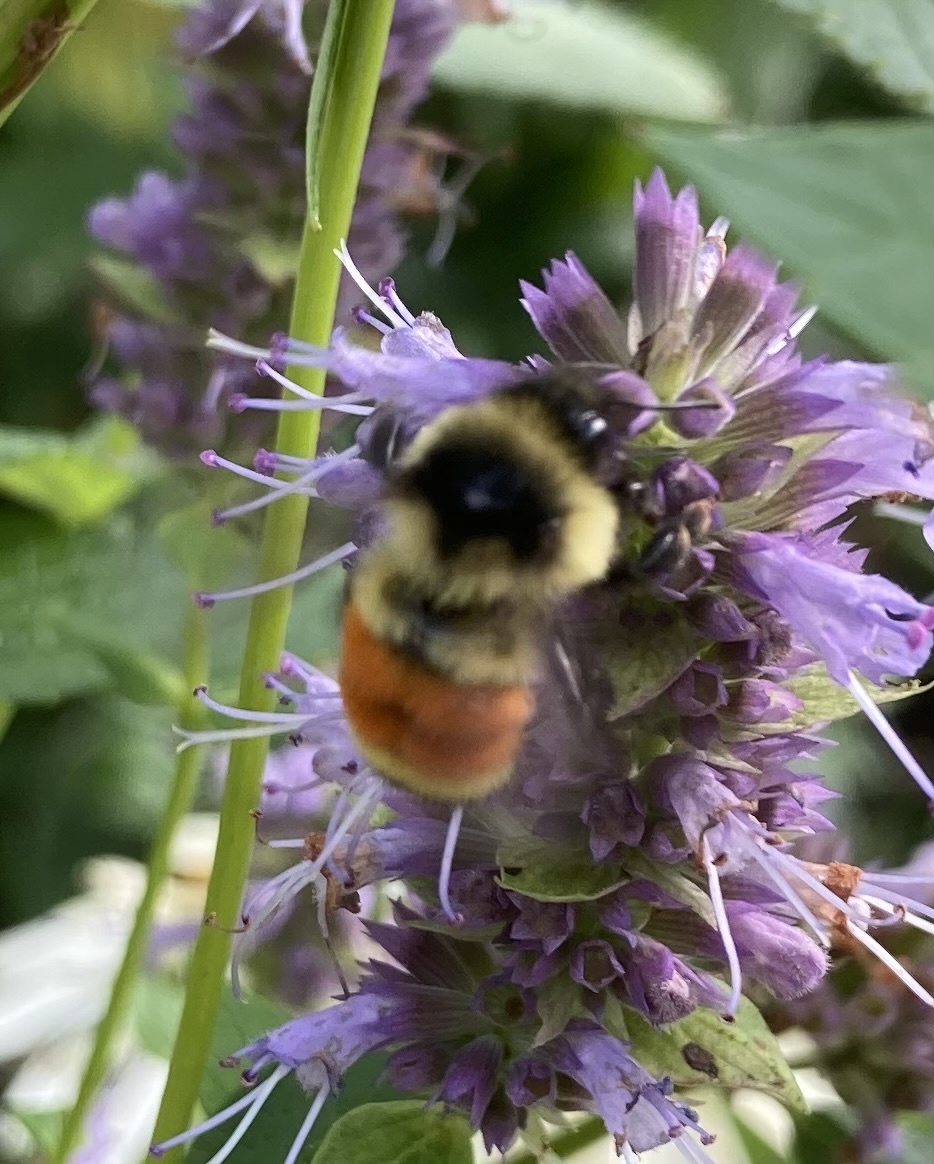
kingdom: Animalia
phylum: Arthropoda
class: Insecta
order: Hymenoptera
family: Apidae
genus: Bombus
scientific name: Bombus ternarius
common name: Tri-colored bumble bee
